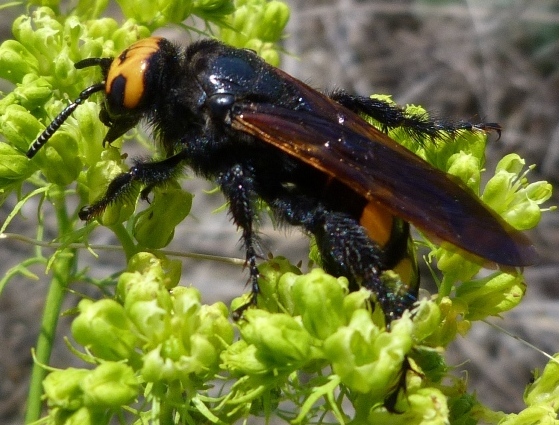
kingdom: Animalia
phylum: Arthropoda
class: Insecta
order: Hymenoptera
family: Scoliidae
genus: Megascolia
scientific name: Megascolia maculata
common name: Mammoth wasp
